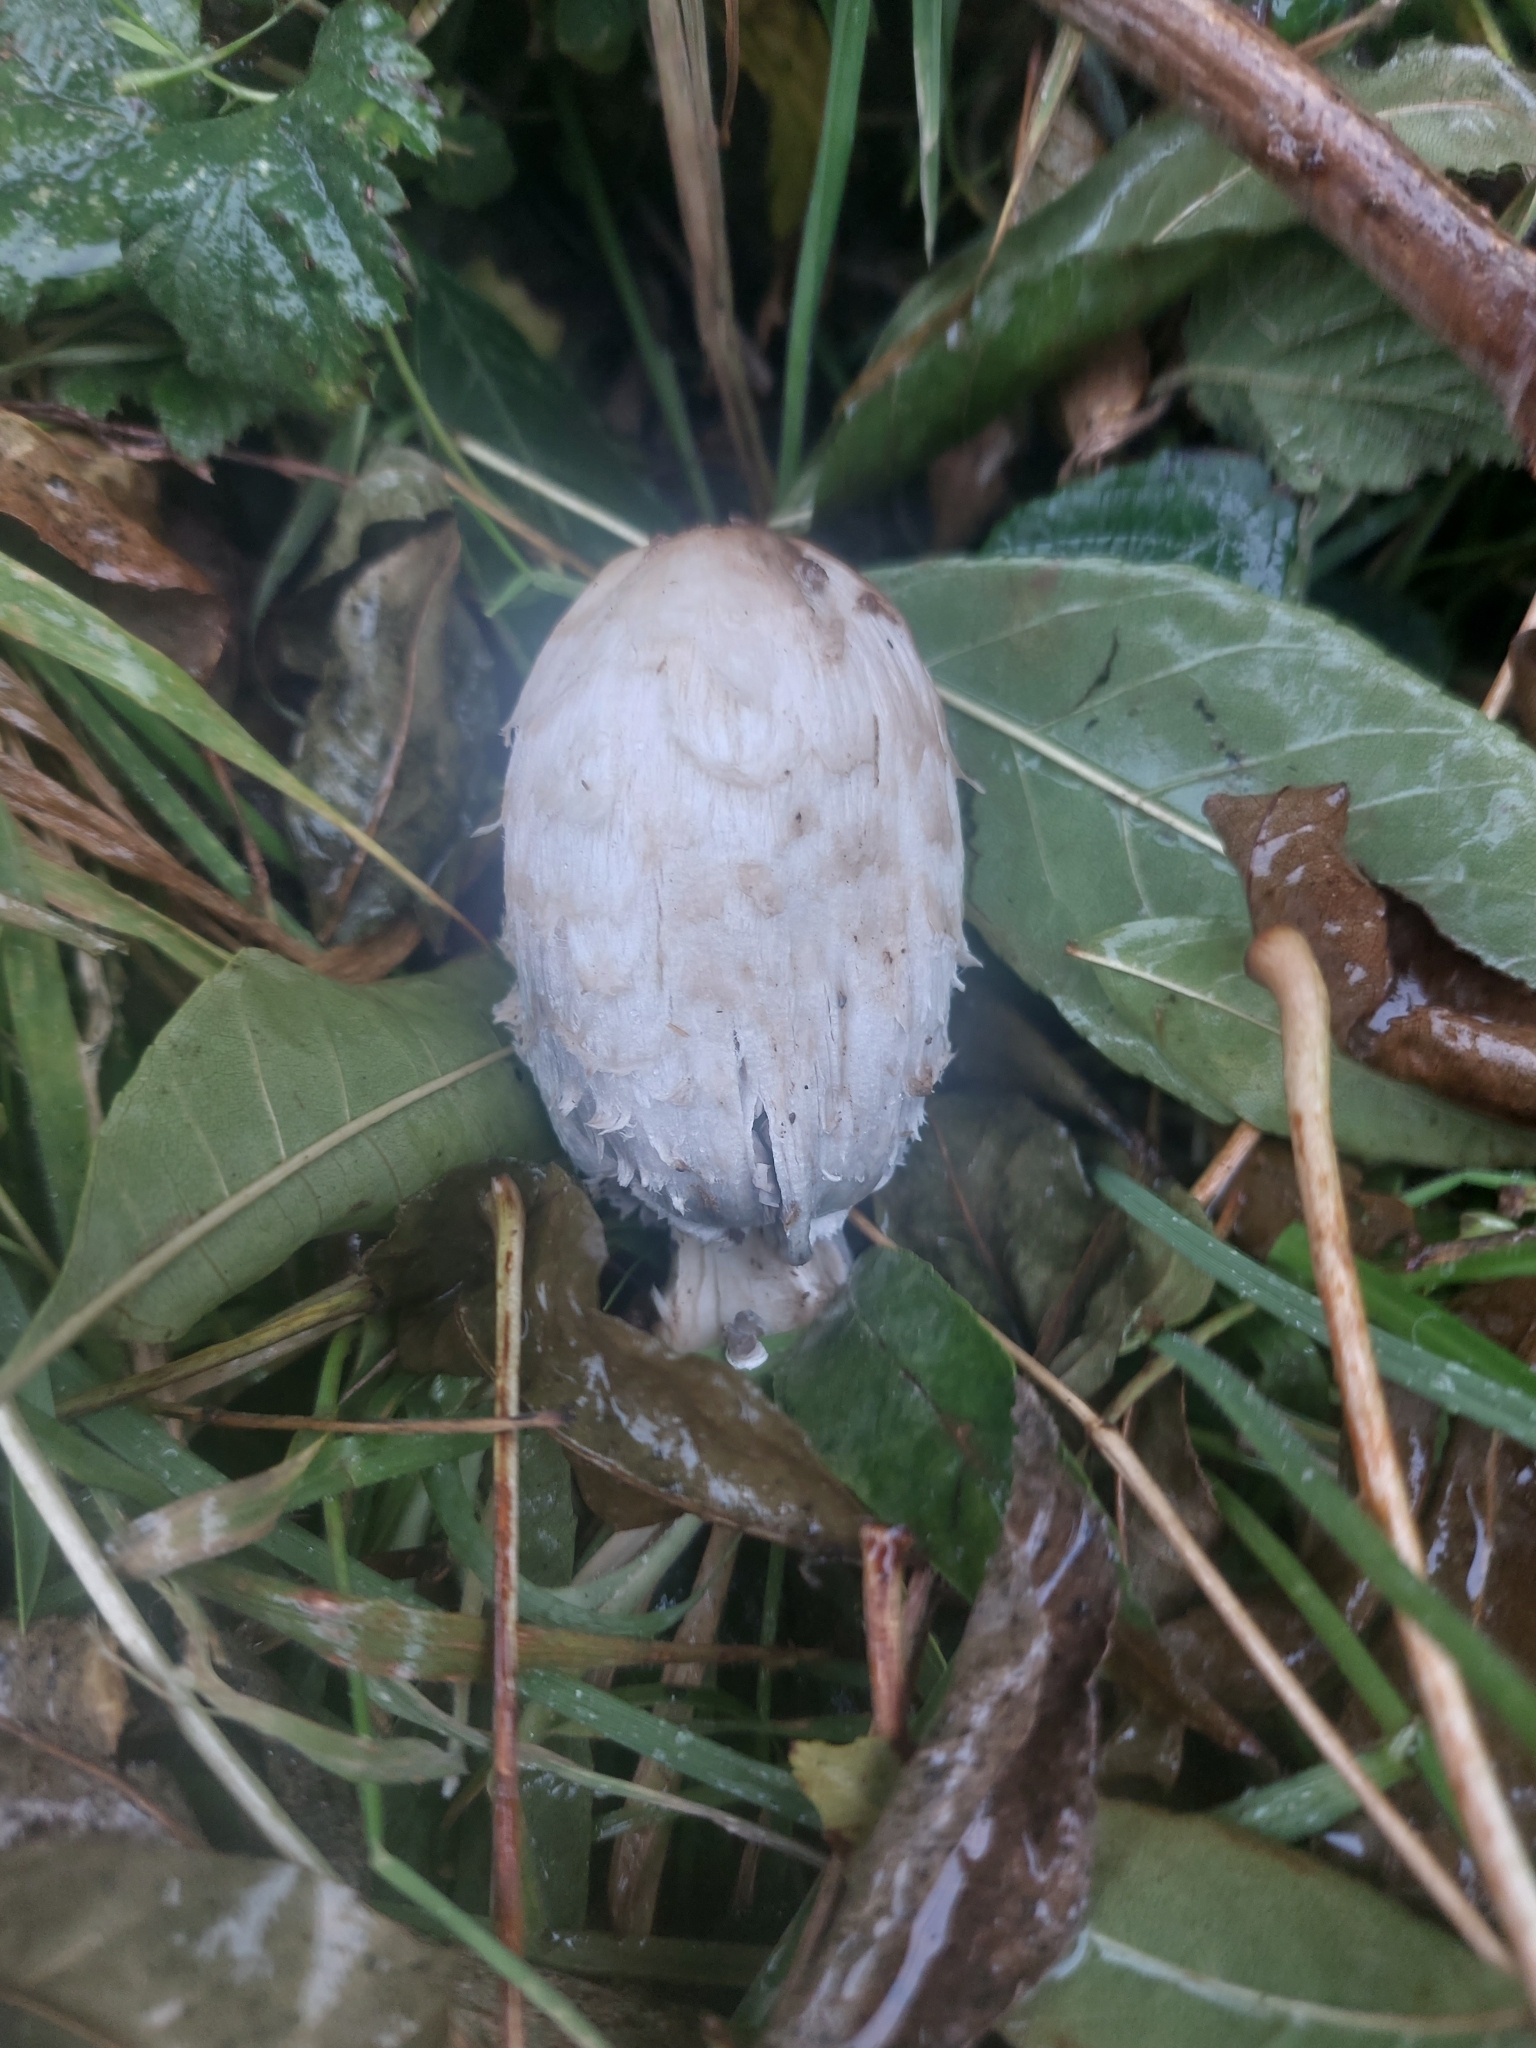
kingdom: Fungi
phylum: Basidiomycota
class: Agaricomycetes
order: Agaricales
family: Agaricaceae
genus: Coprinus
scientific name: Coprinus comatus
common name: Lawyer's wig
